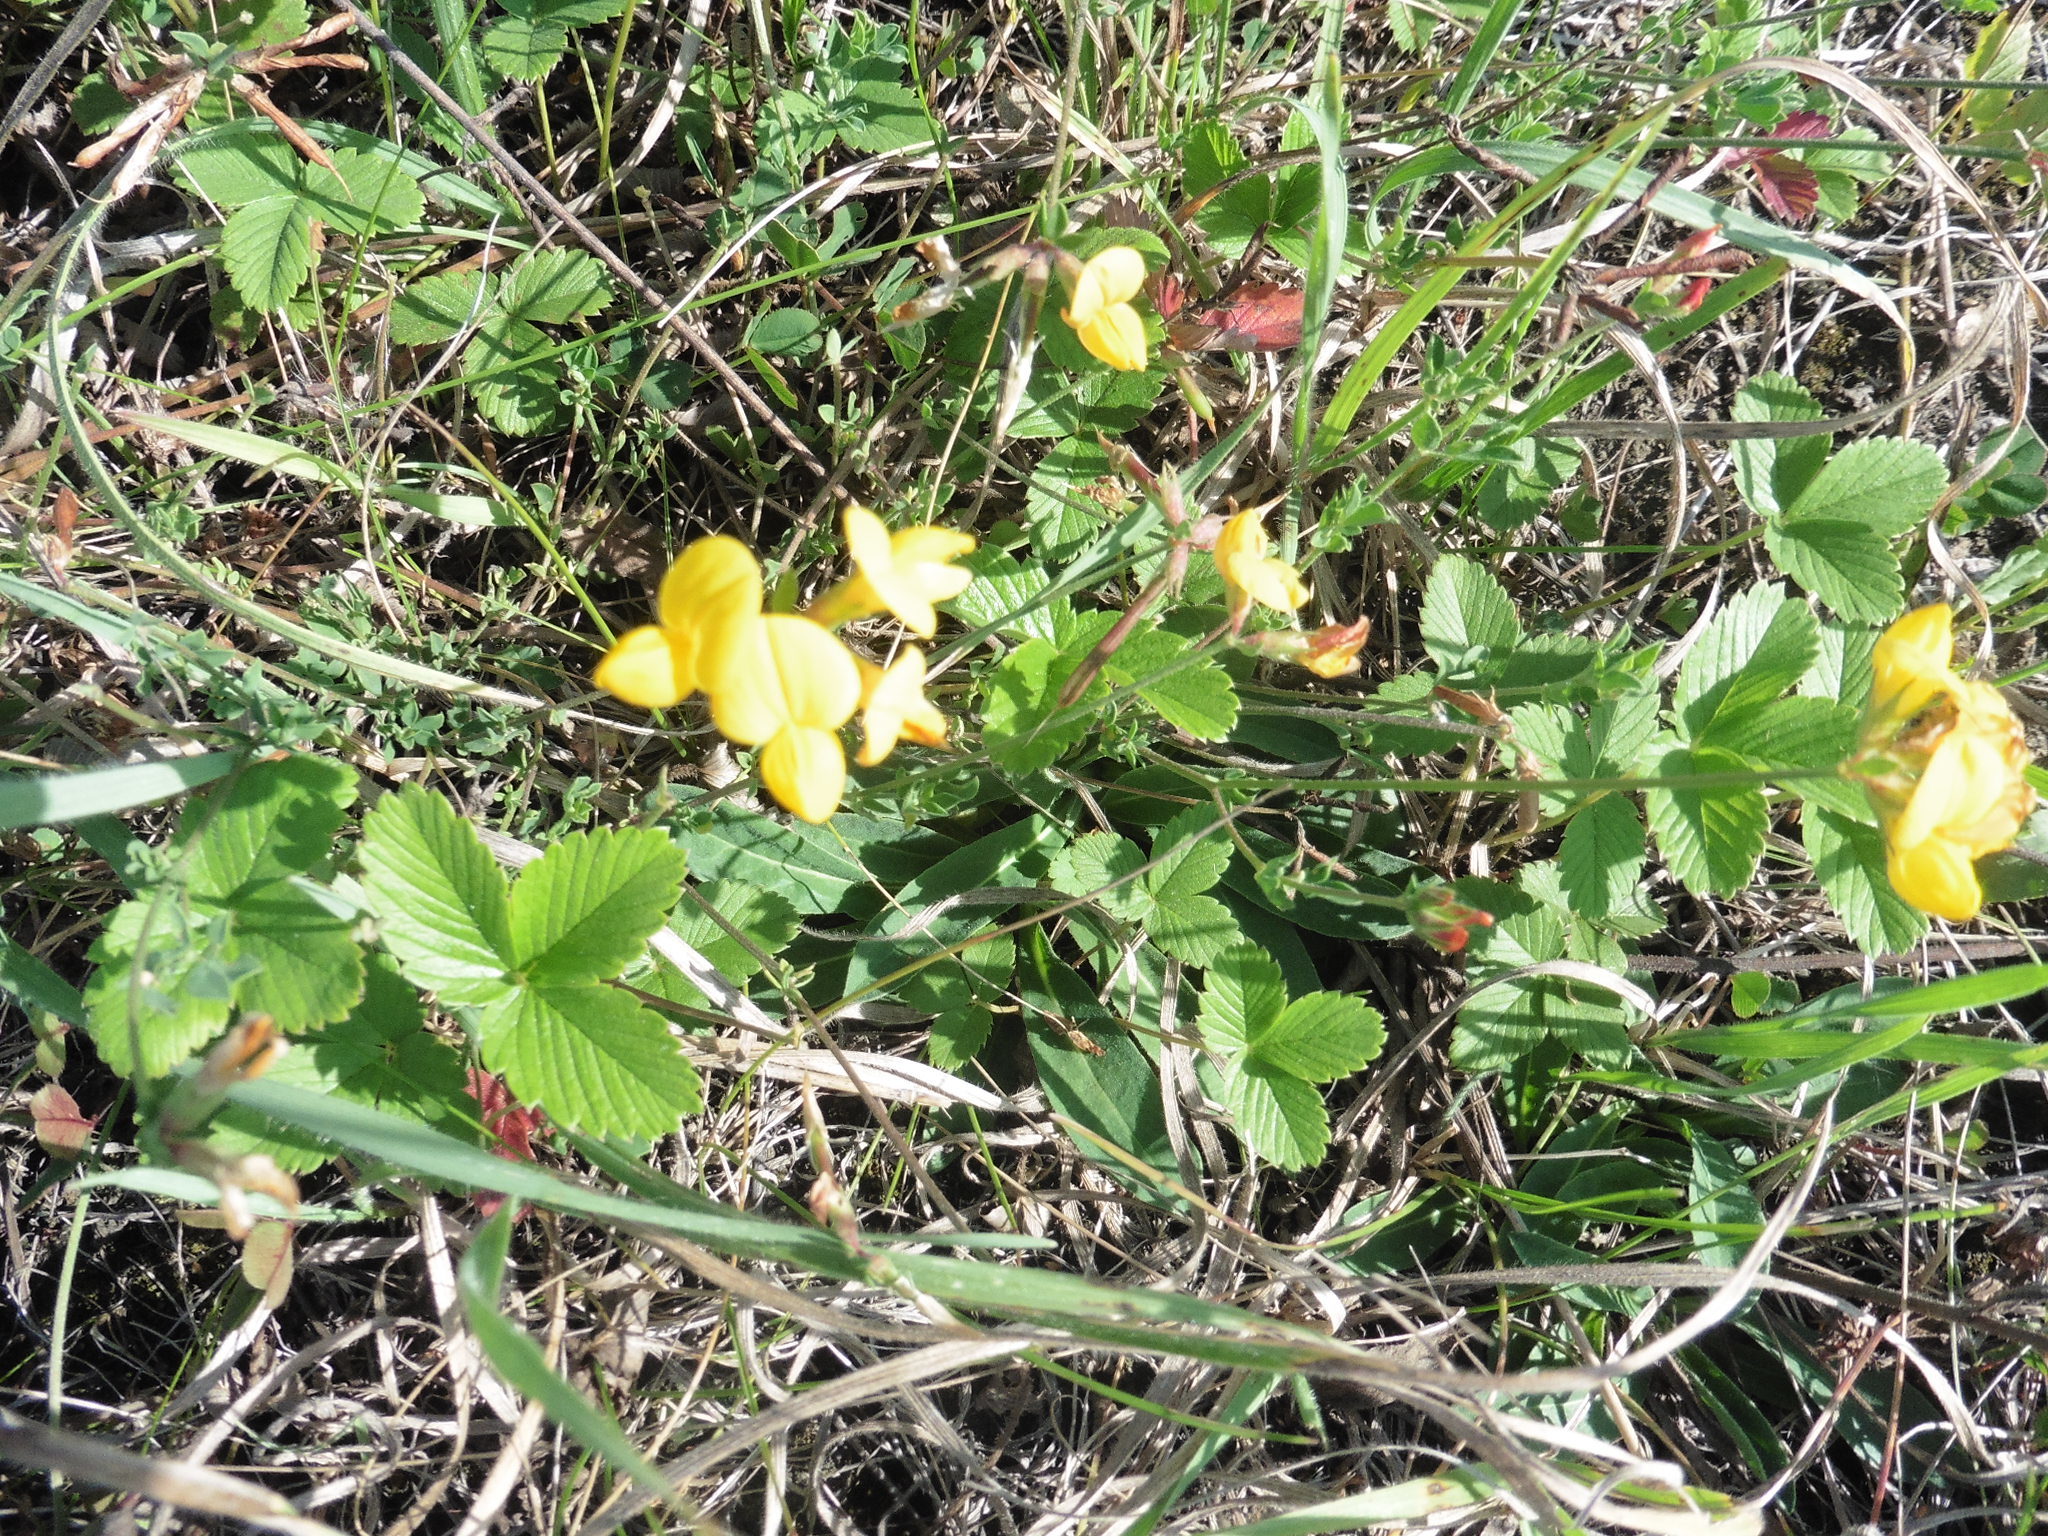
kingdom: Plantae
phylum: Tracheophyta
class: Magnoliopsida
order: Fabales
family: Fabaceae
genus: Lotus
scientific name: Lotus corniculatus
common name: Common bird's-foot-trefoil
